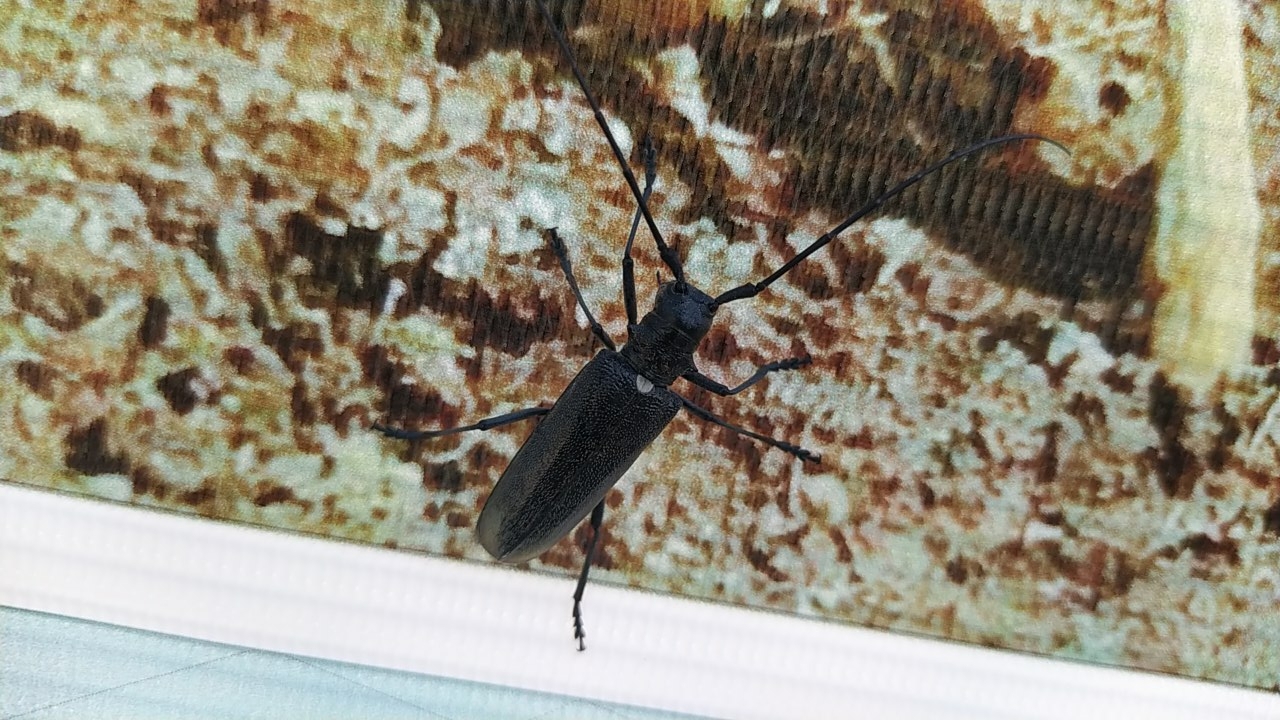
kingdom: Animalia
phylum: Arthropoda
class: Insecta
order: Coleoptera
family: Cerambycidae
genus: Monochamus
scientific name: Monochamus sartor
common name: Pine sawyer
